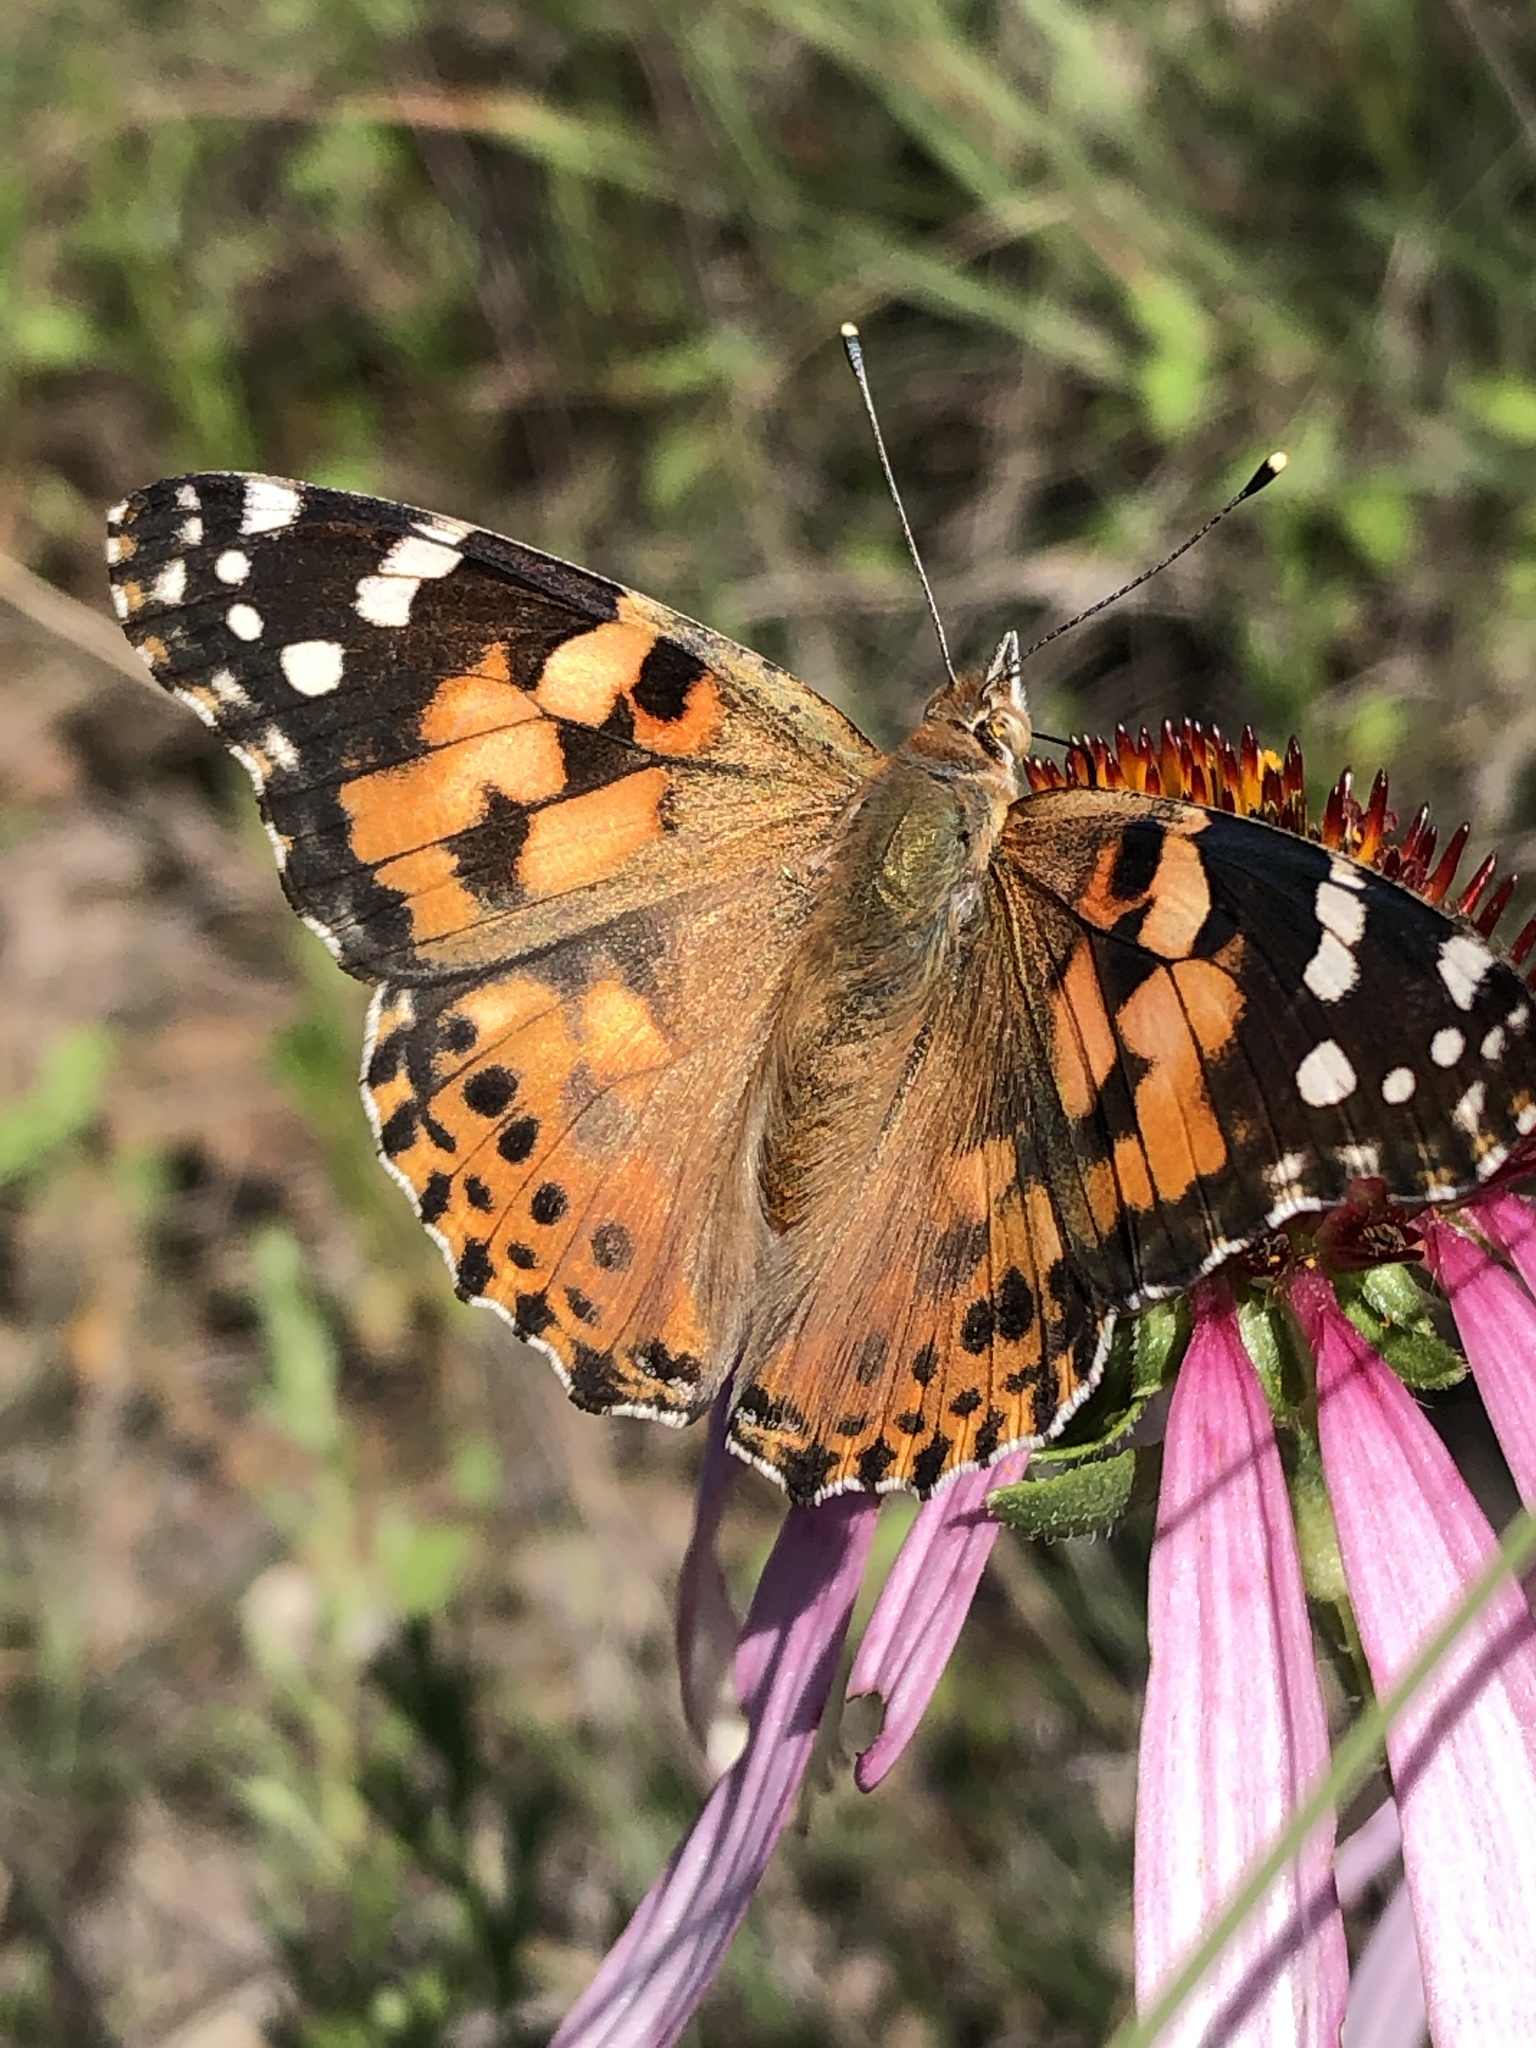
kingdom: Animalia
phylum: Arthropoda
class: Insecta
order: Lepidoptera
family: Nymphalidae
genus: Vanessa
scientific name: Vanessa cardui
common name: Painted lady
